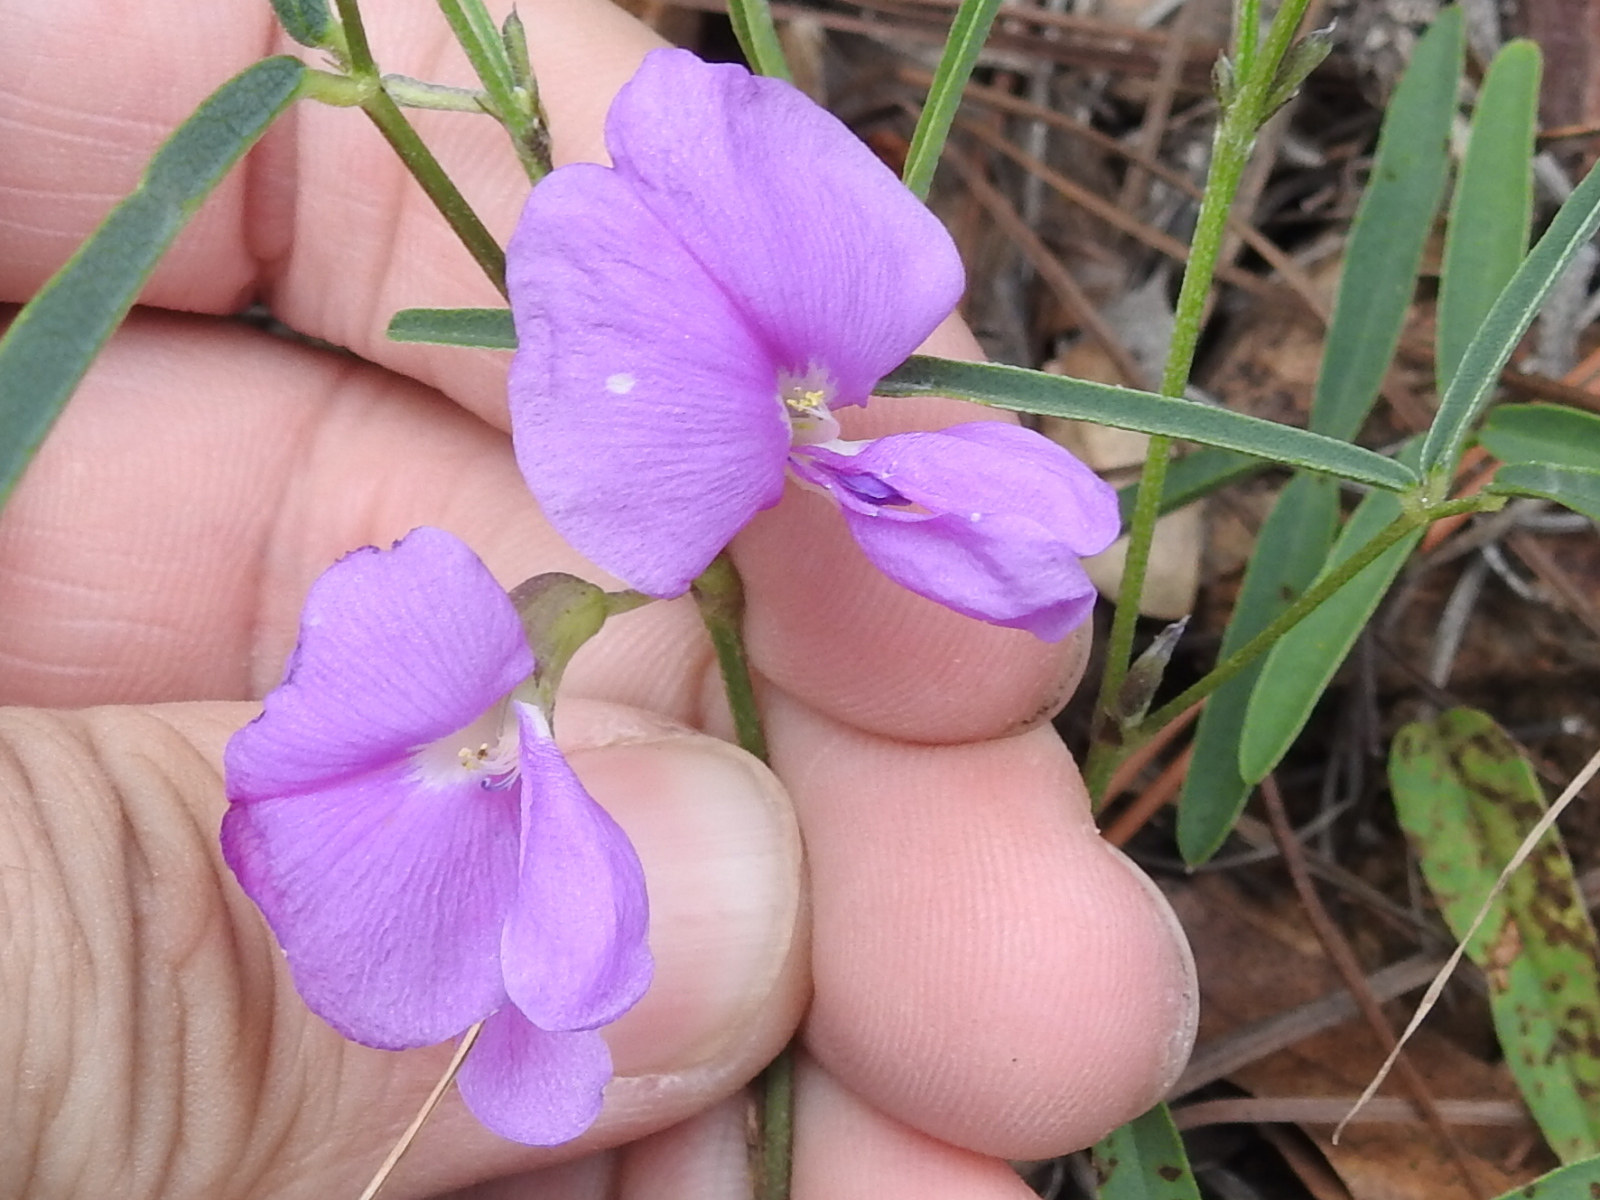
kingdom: Plantae
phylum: Tracheophyta
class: Magnoliopsida
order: Fabales
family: Fabaceae
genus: Cologania
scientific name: Cologania angustifolia
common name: Longleaf cologania
